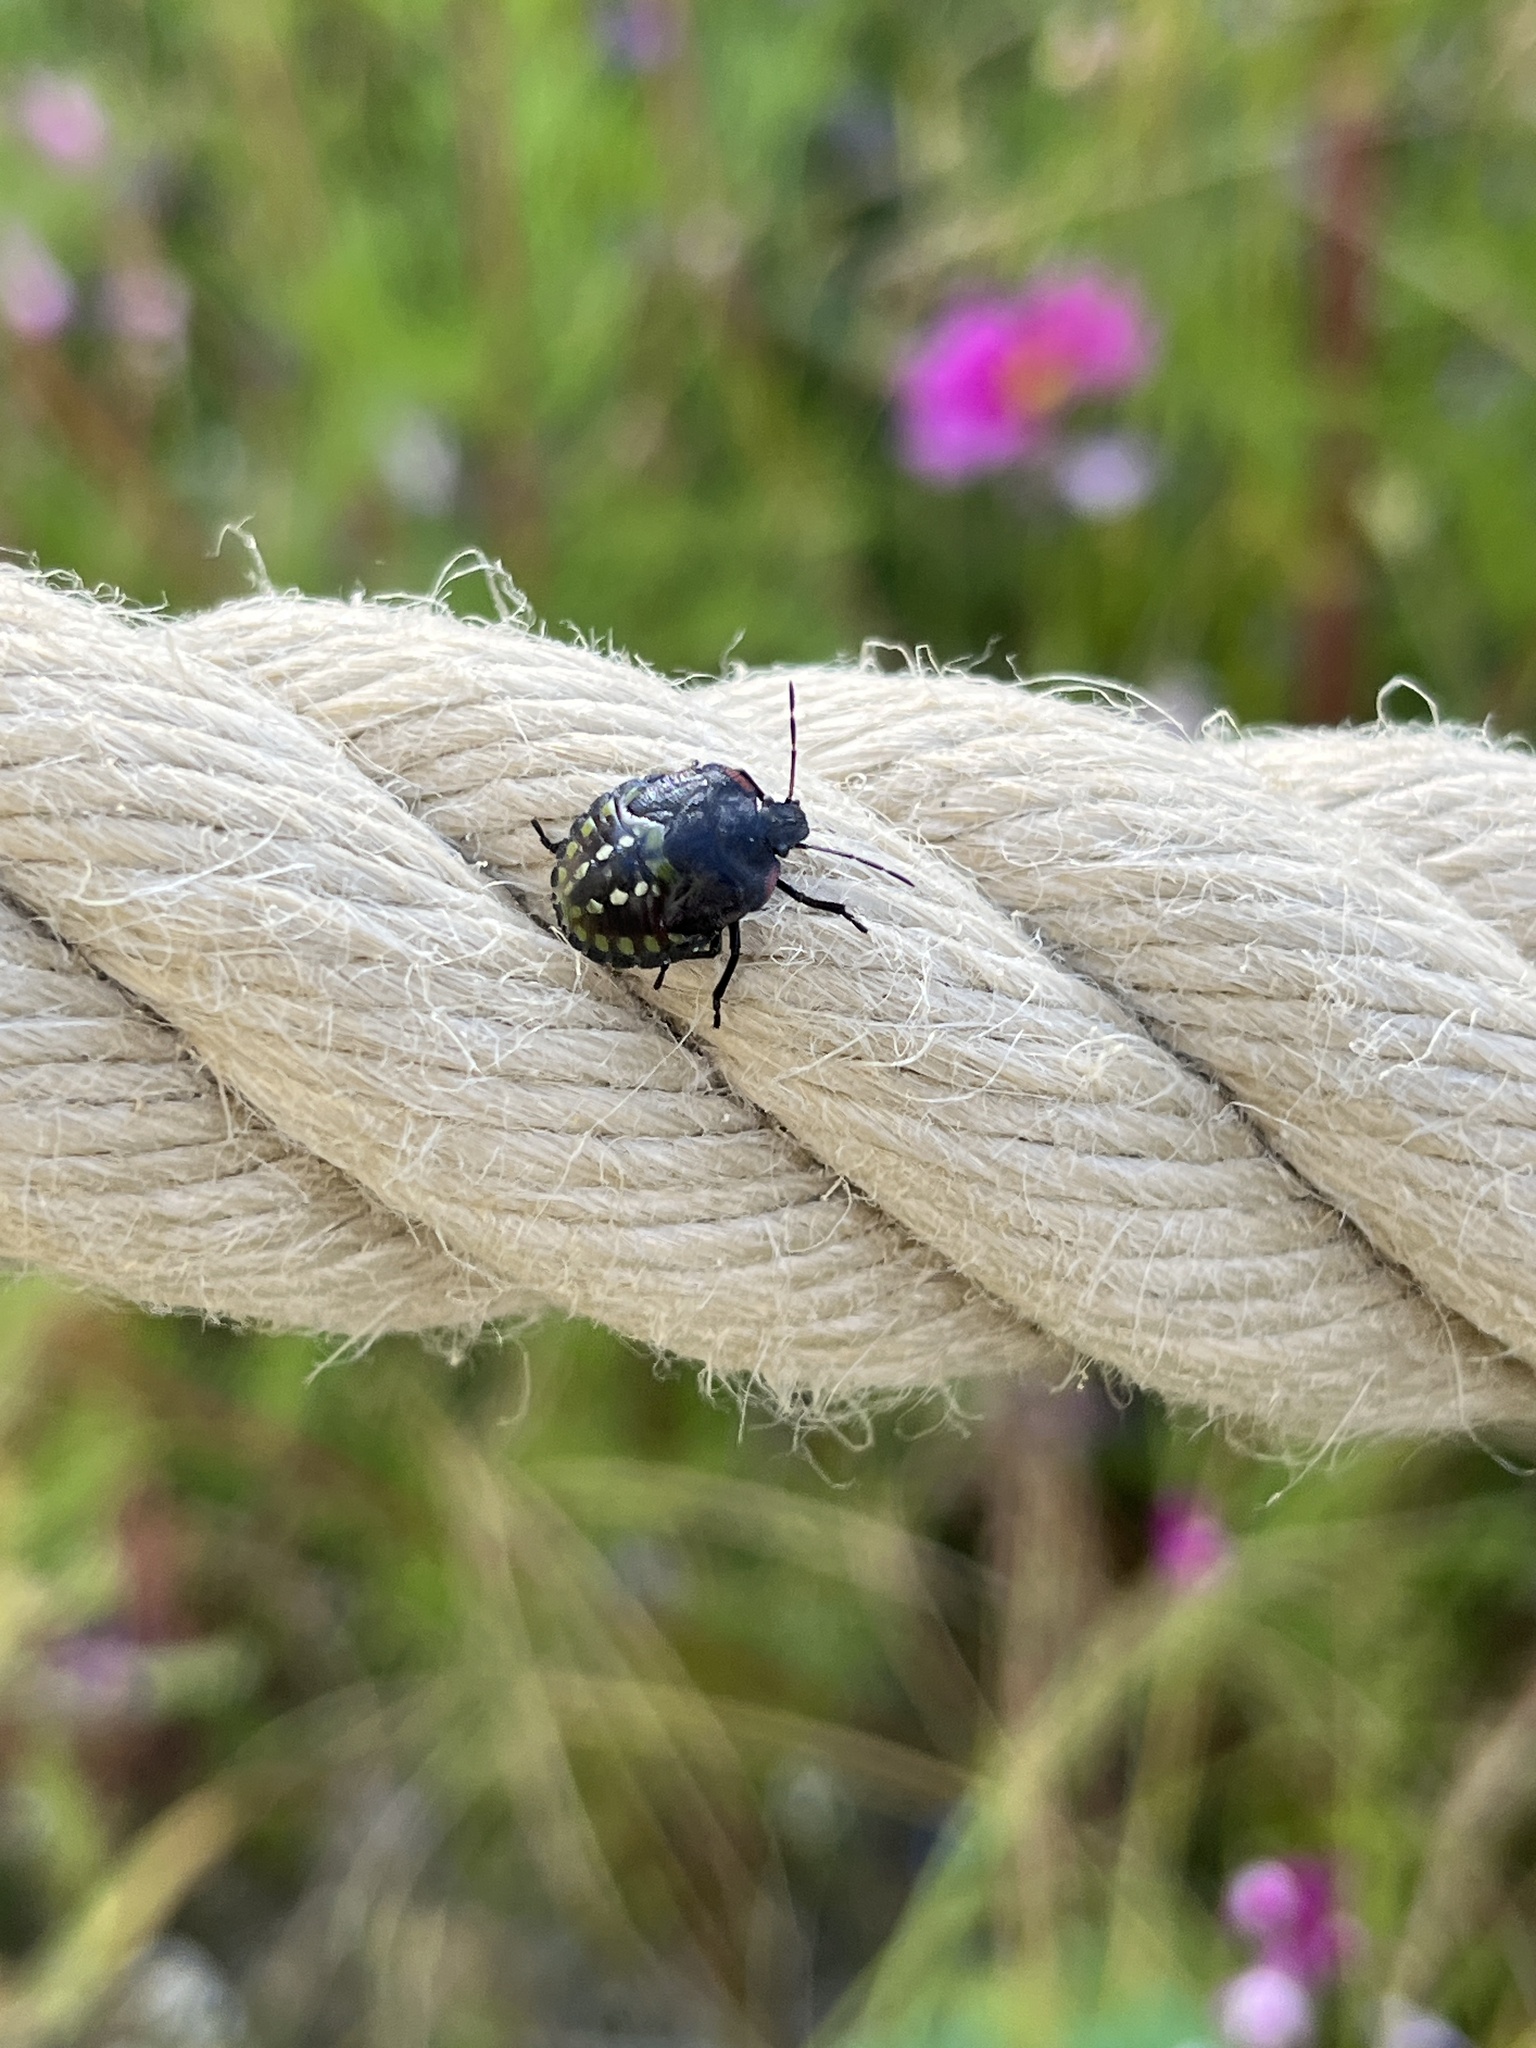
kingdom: Animalia
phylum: Arthropoda
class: Insecta
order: Hemiptera
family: Pentatomidae
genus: Nezara
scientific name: Nezara viridula
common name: Southern green stink bug
